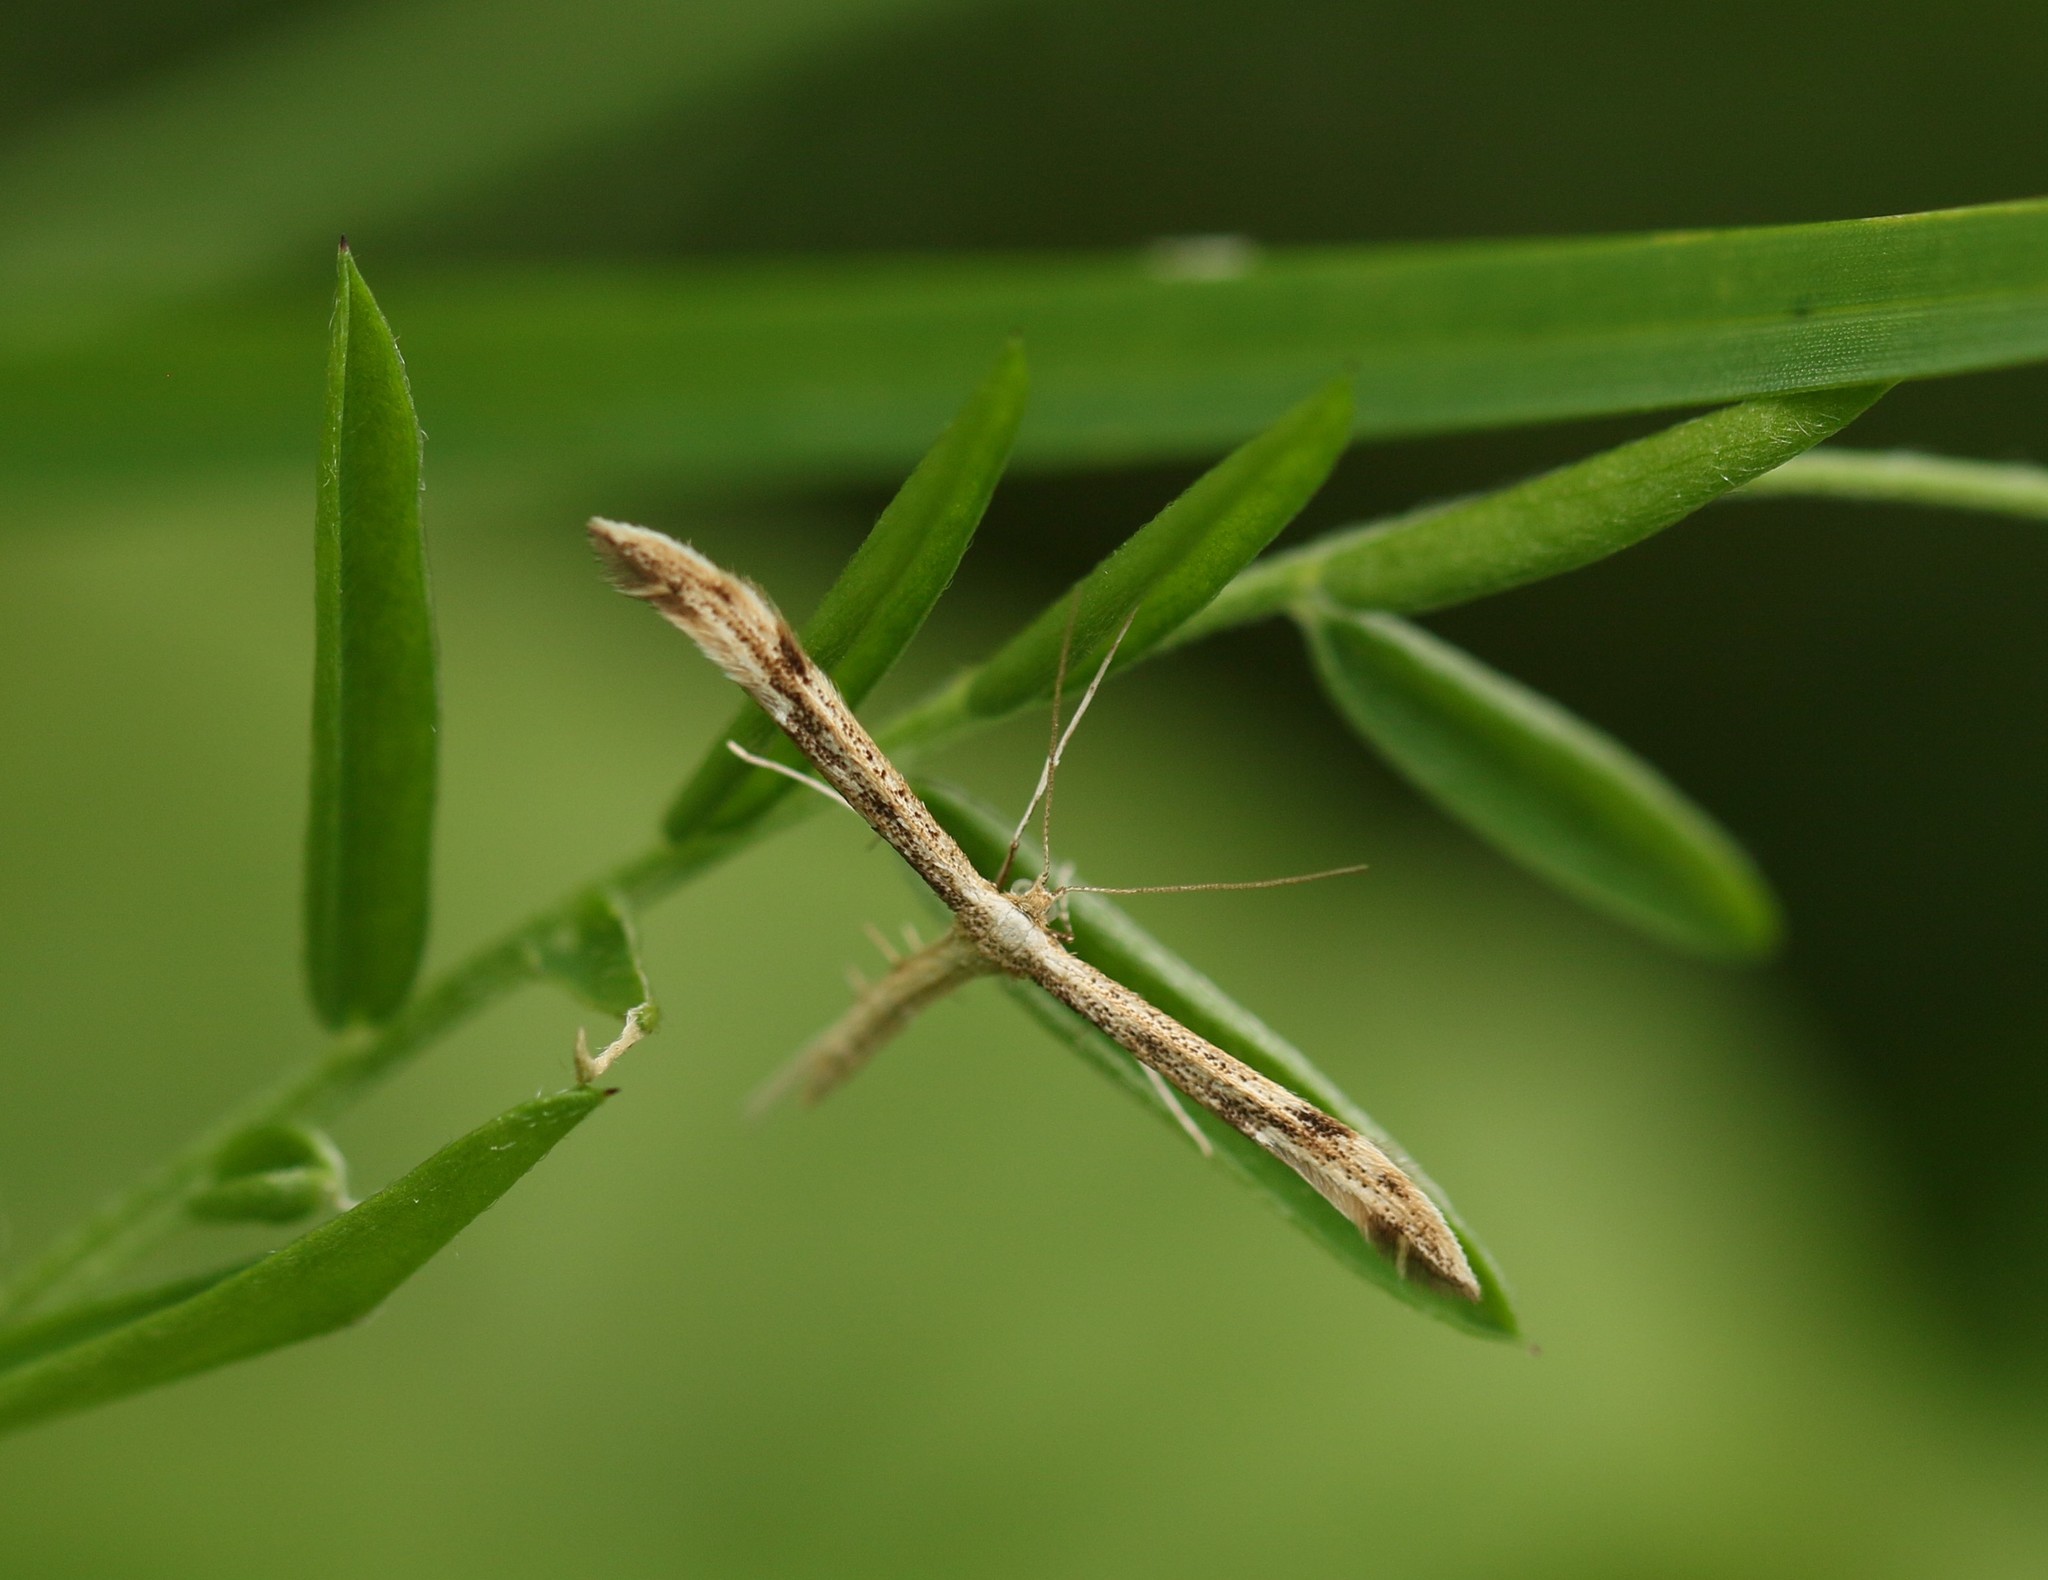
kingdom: Animalia
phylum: Arthropoda
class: Insecta
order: Lepidoptera
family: Pterophoridae
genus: Adaina
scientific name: Adaina montanus
